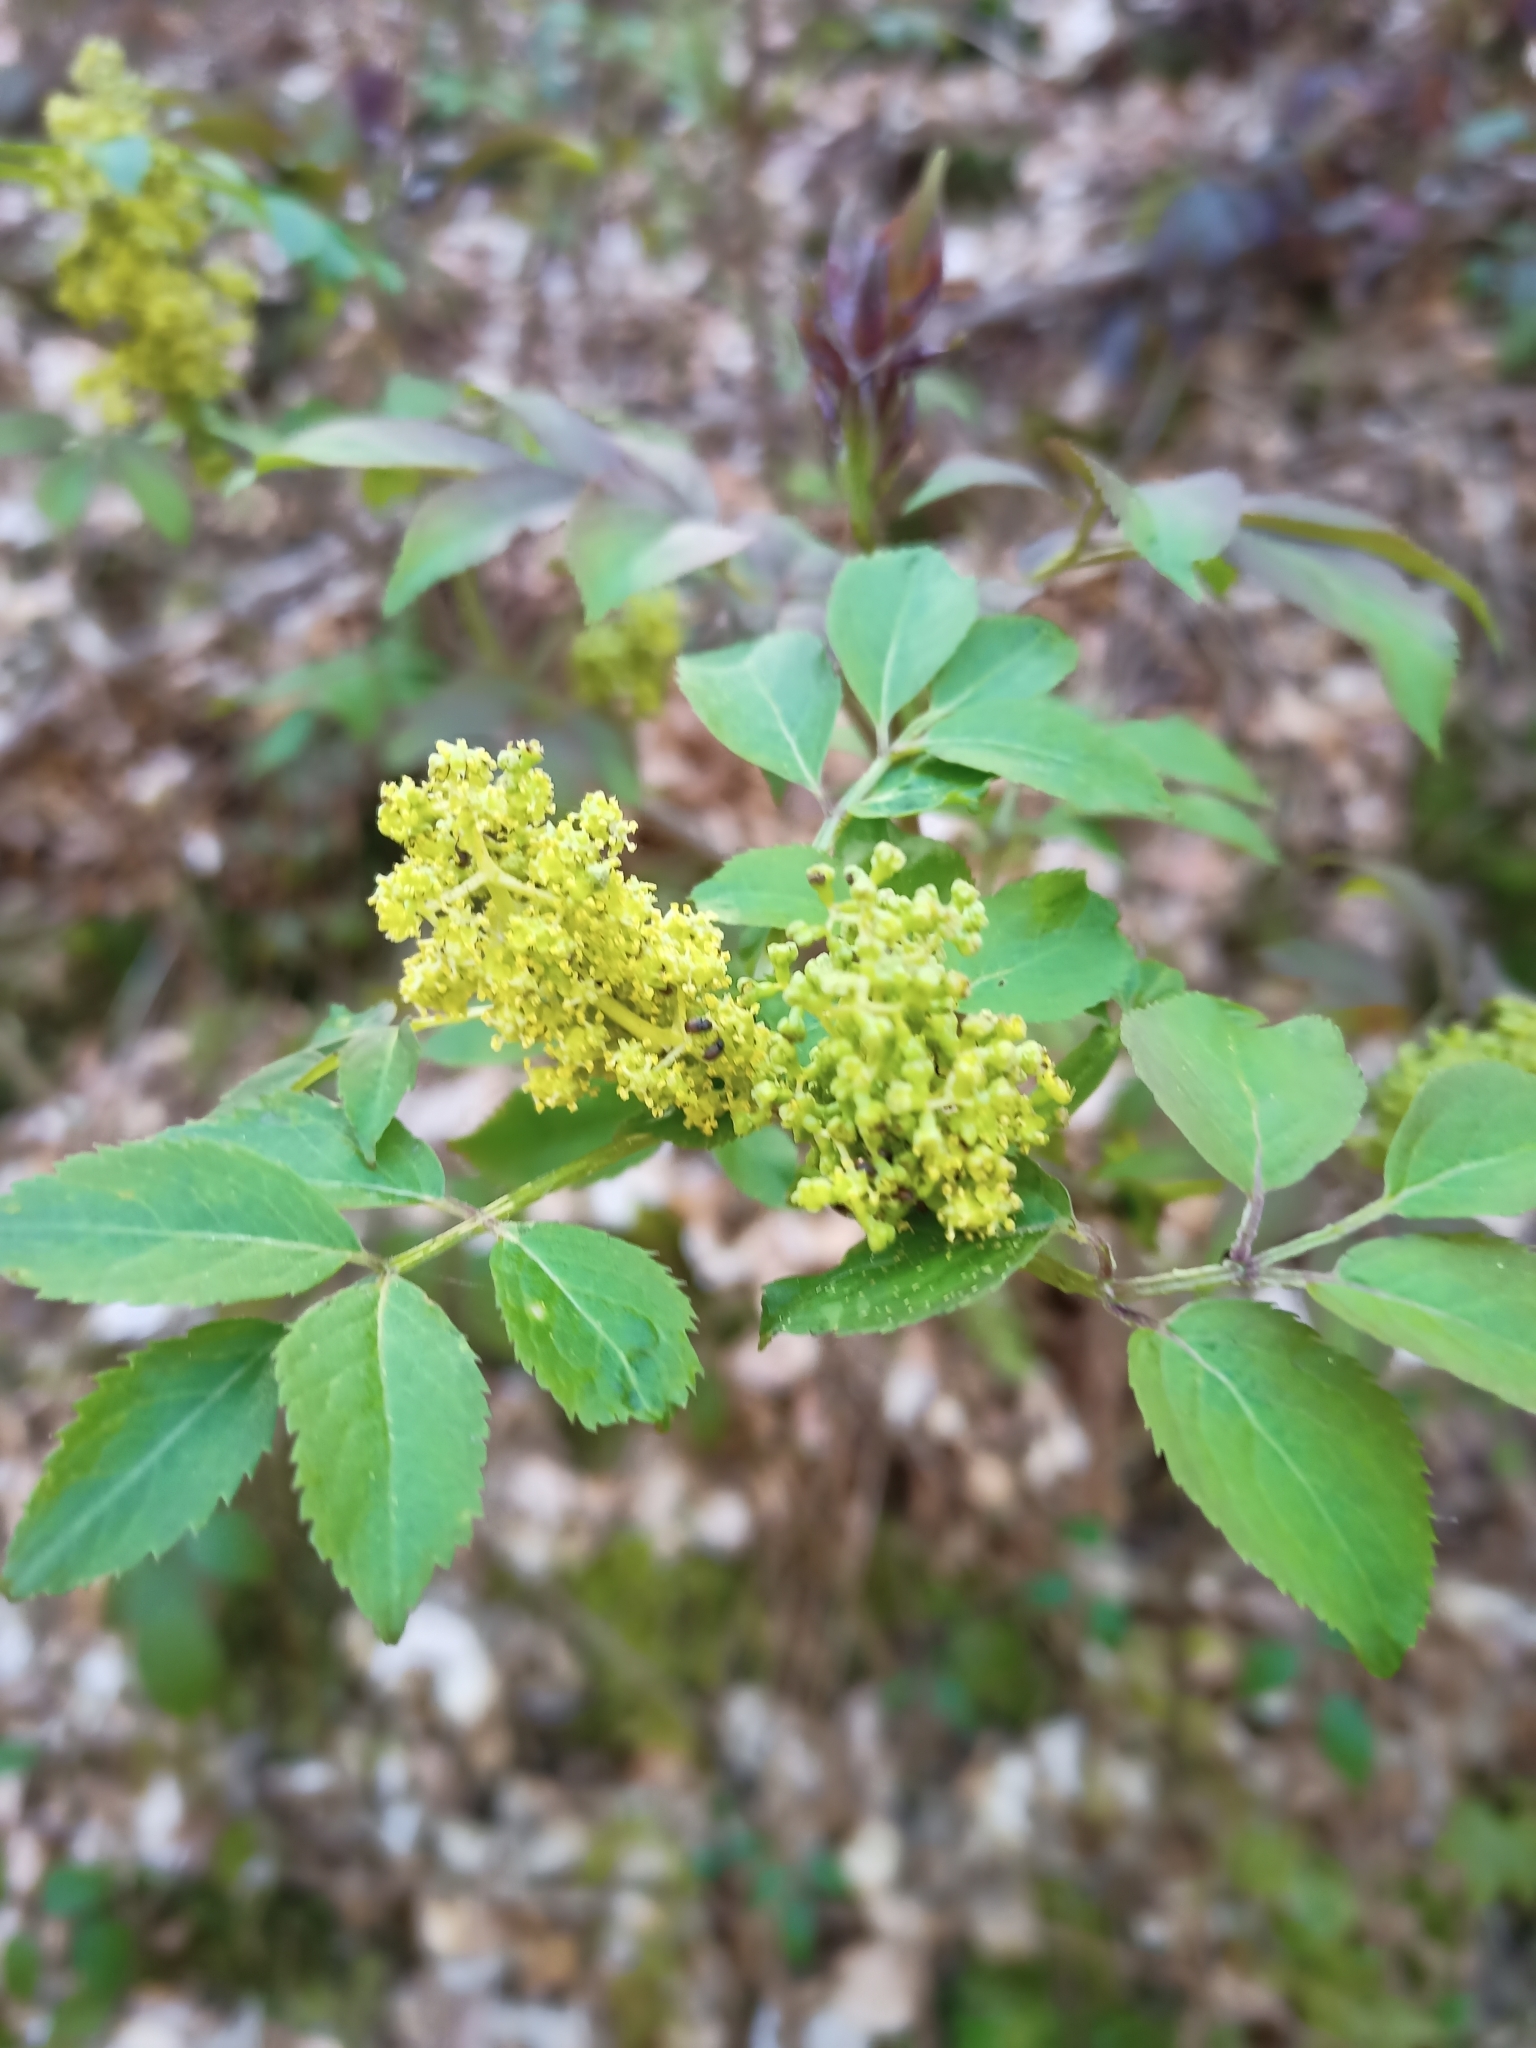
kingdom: Plantae
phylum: Tracheophyta
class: Magnoliopsida
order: Dipsacales
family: Viburnaceae
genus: Sambucus
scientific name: Sambucus racemosa
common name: Red-berried elder
